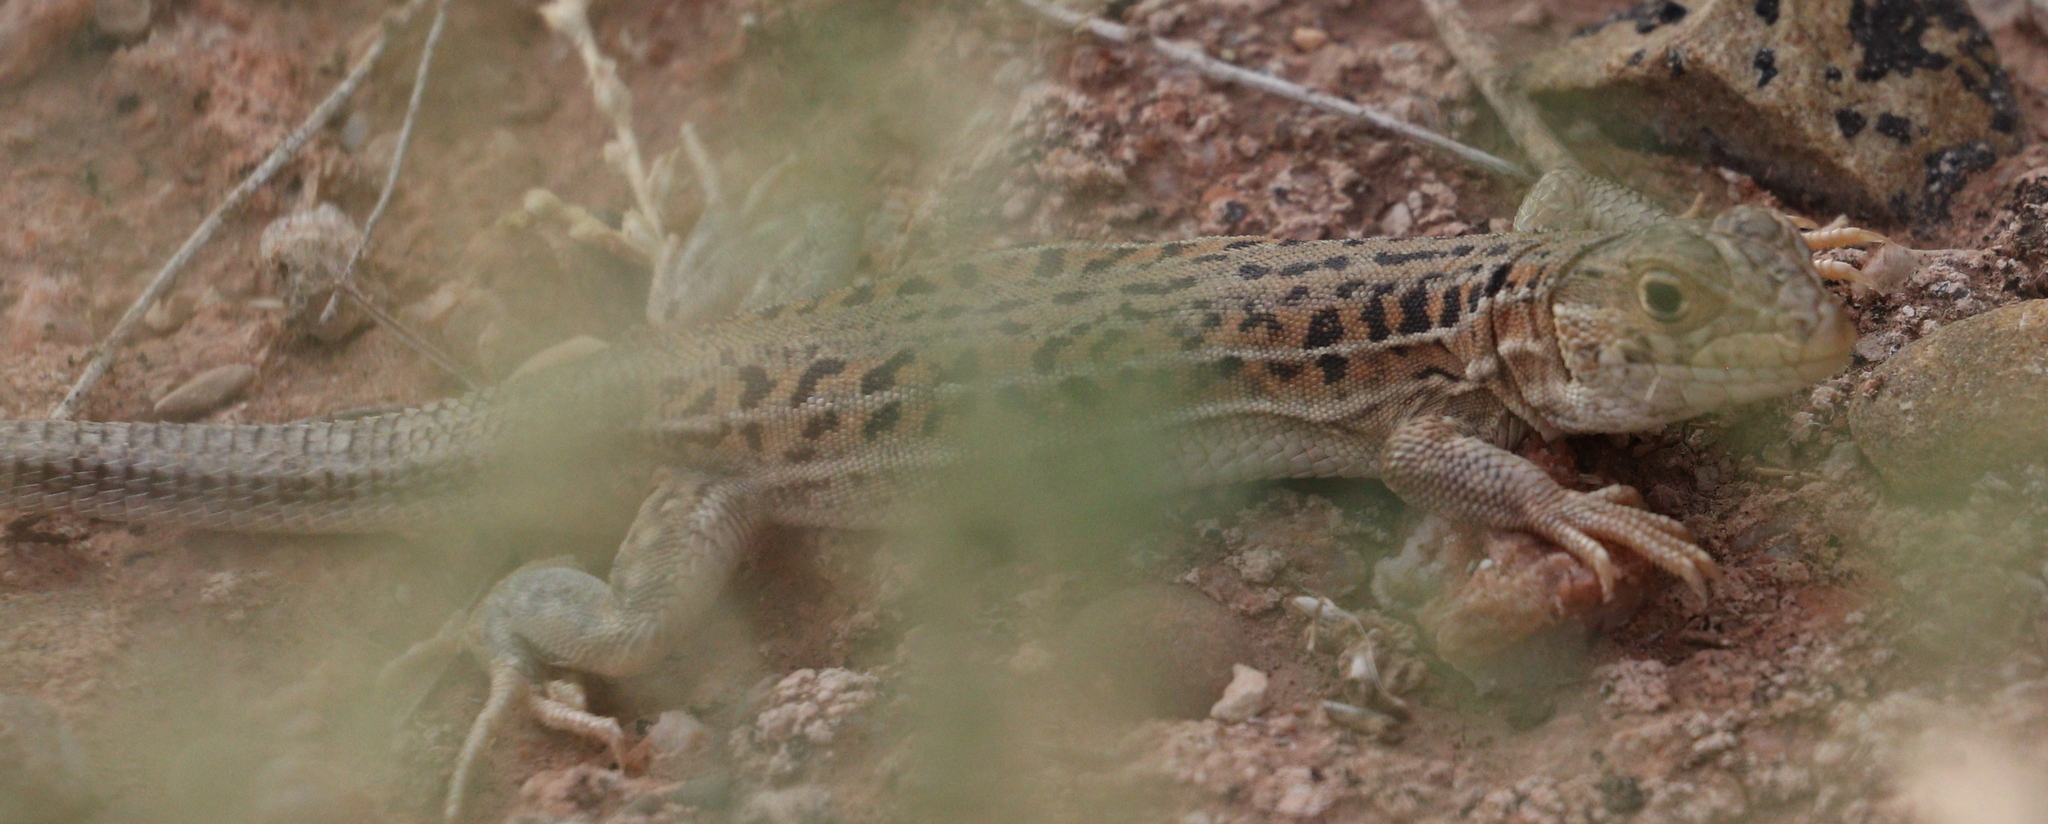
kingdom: Animalia
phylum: Chordata
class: Squamata
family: Lacertidae
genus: Acanthodactylus
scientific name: Acanthodactylus erythrurus
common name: Spiny-footed lizard
